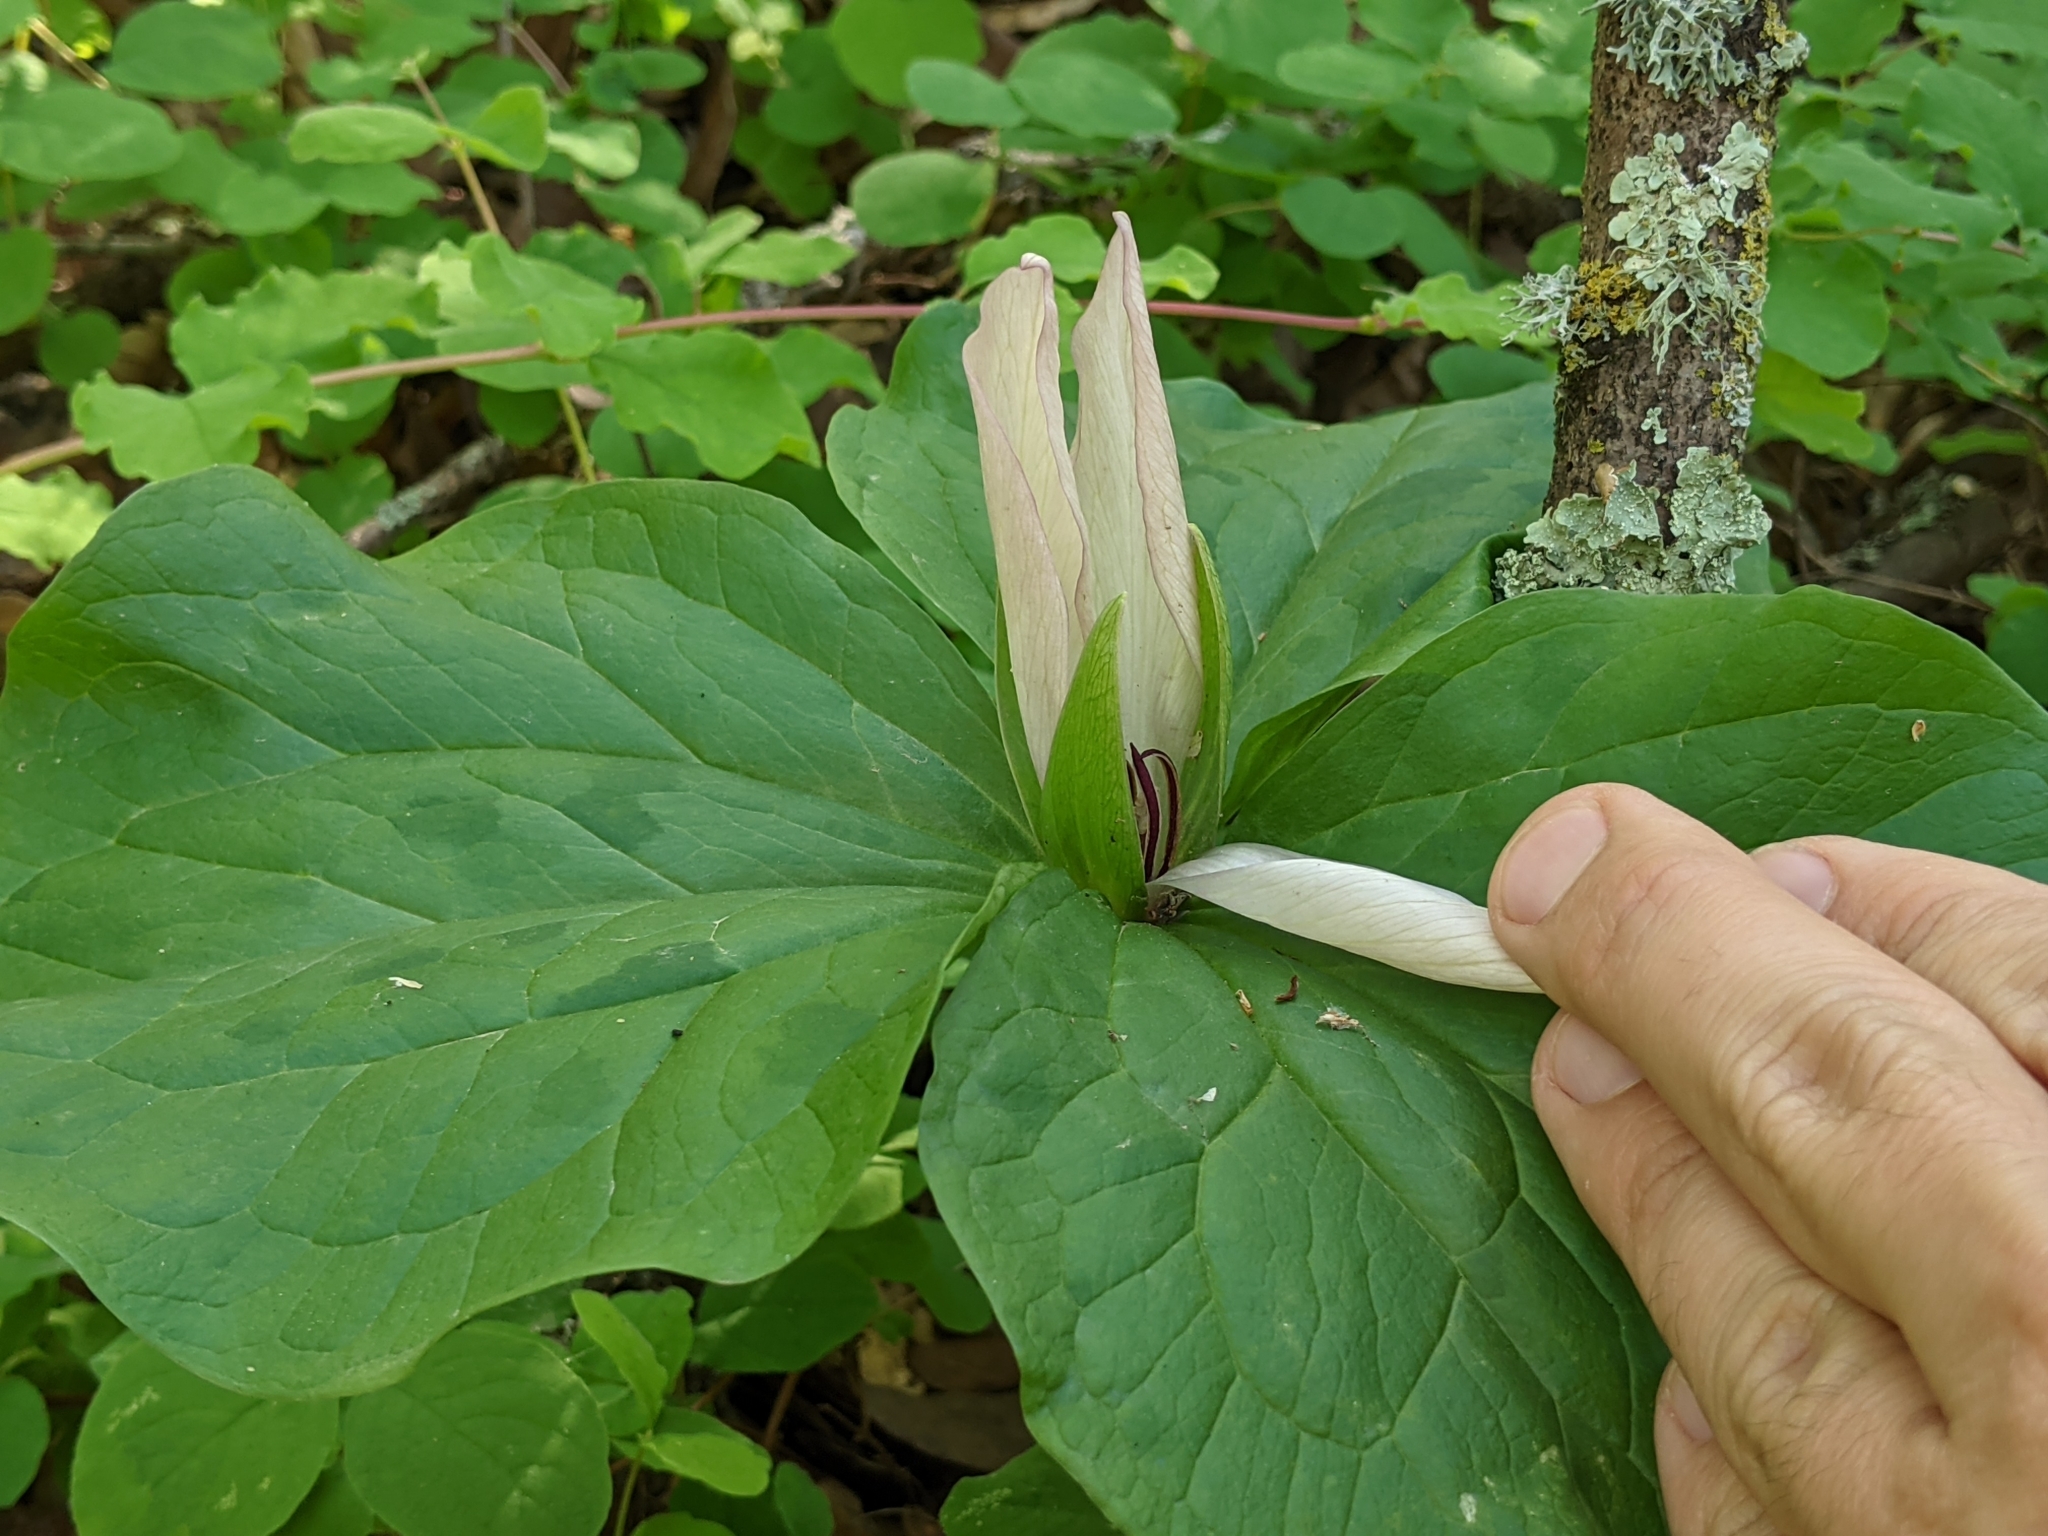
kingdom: Plantae
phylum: Tracheophyta
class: Liliopsida
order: Liliales
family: Melanthiaceae
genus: Trillium
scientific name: Trillium chloropetalum
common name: Giant trillium
